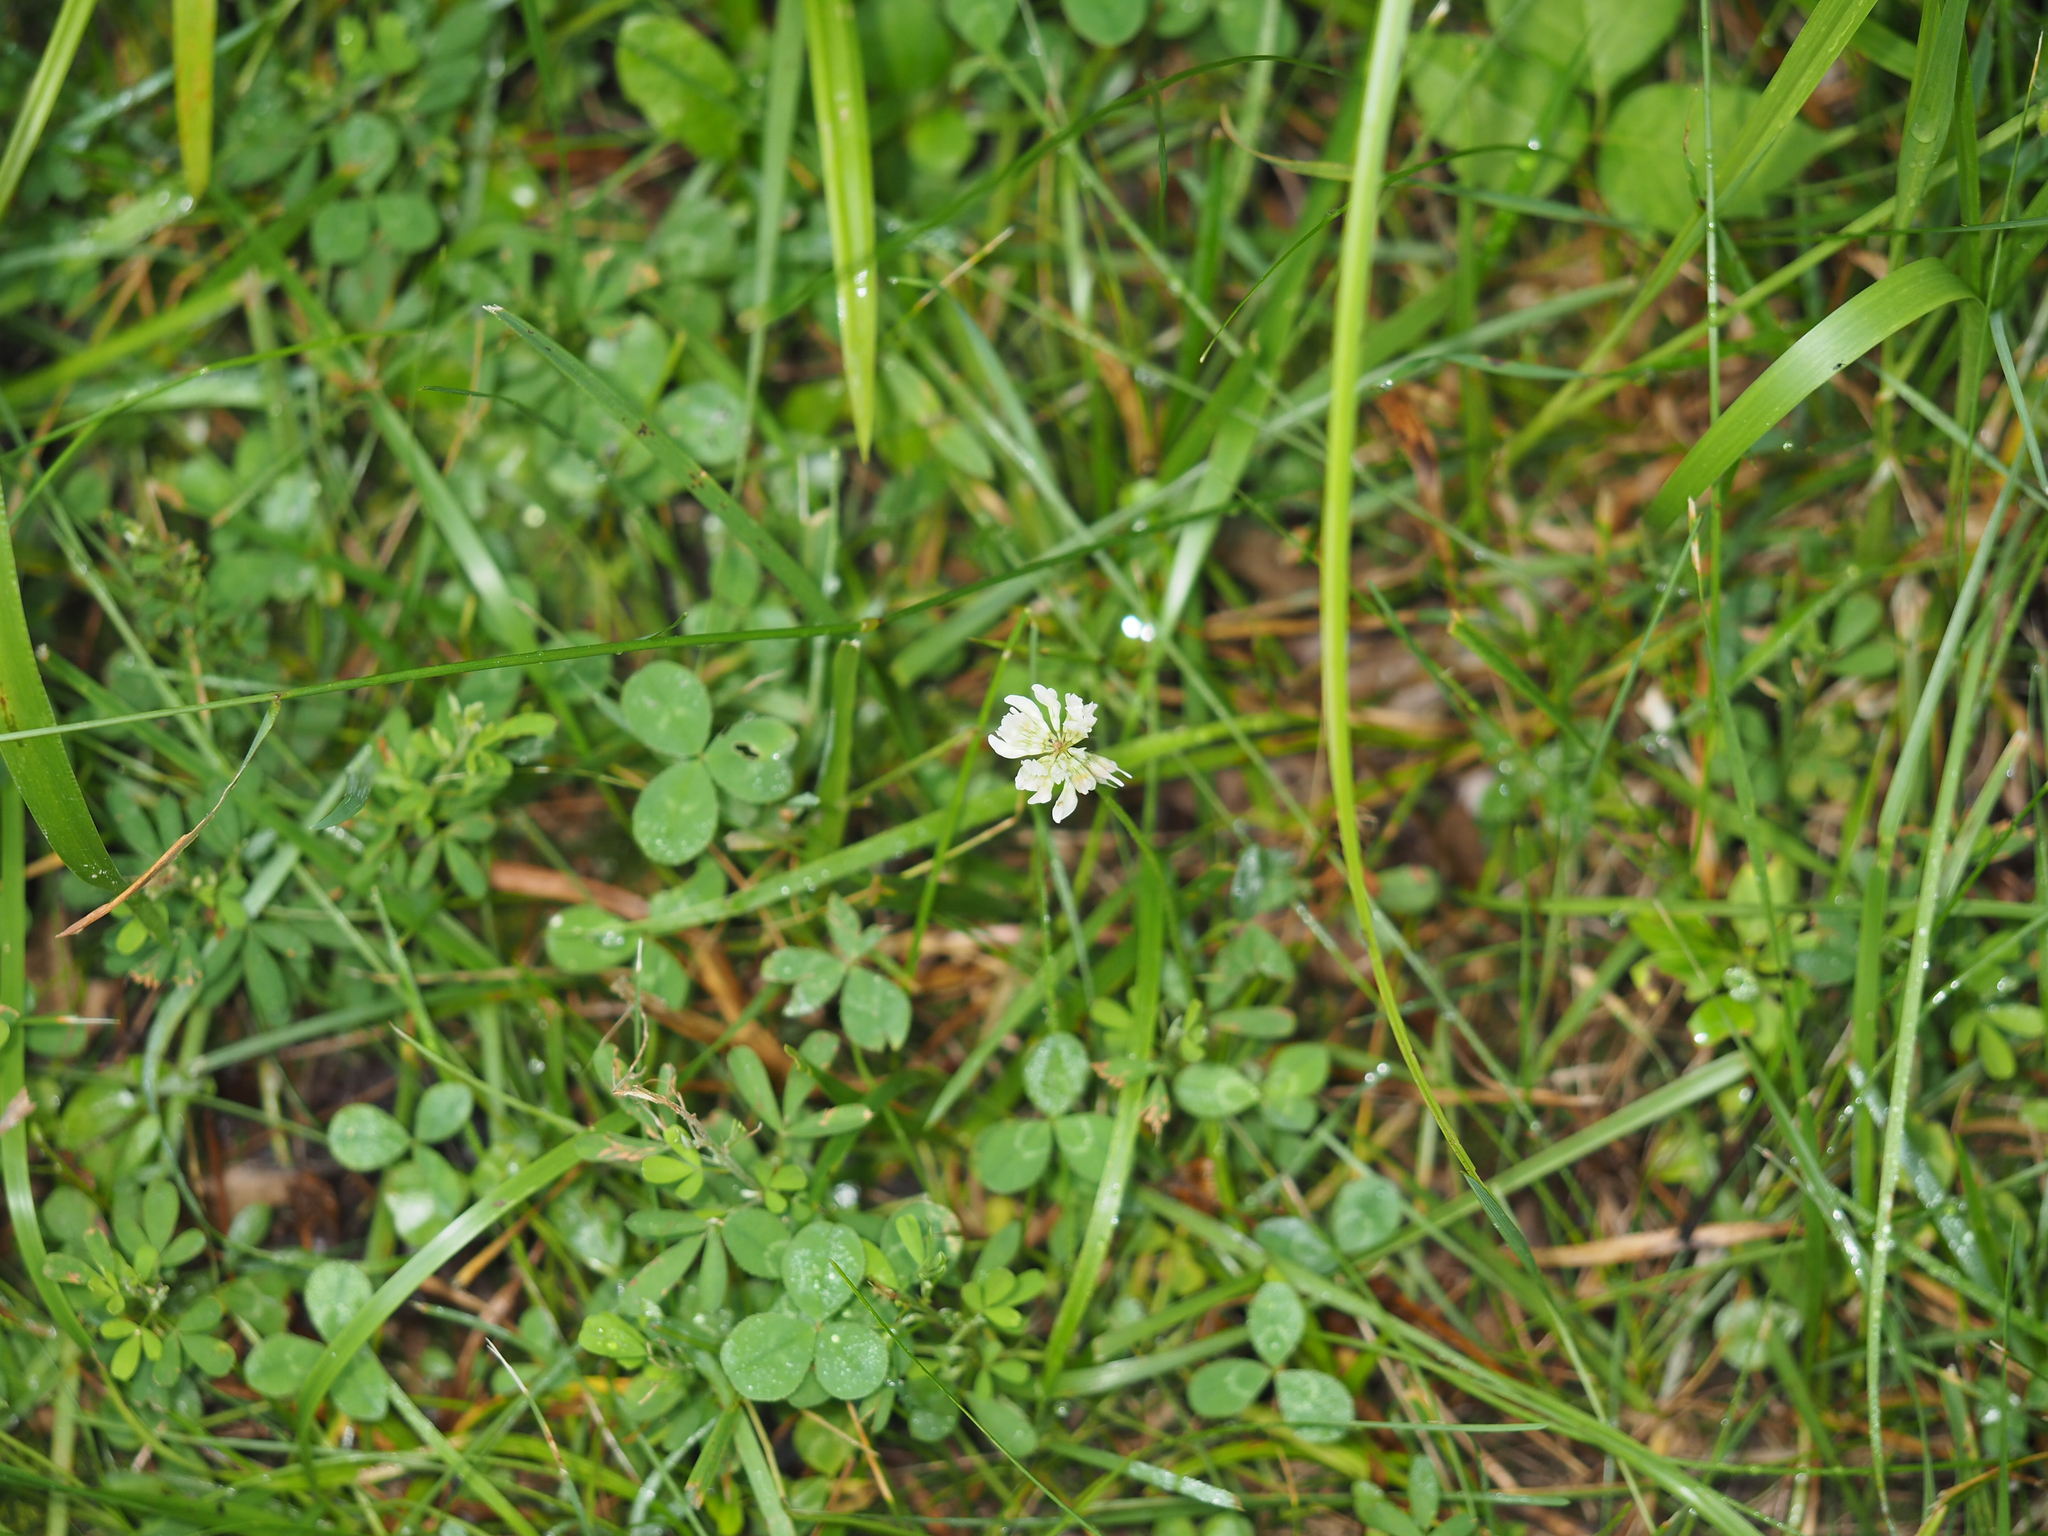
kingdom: Plantae
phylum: Tracheophyta
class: Magnoliopsida
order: Fabales
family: Fabaceae
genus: Trifolium
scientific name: Trifolium repens
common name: White clover
